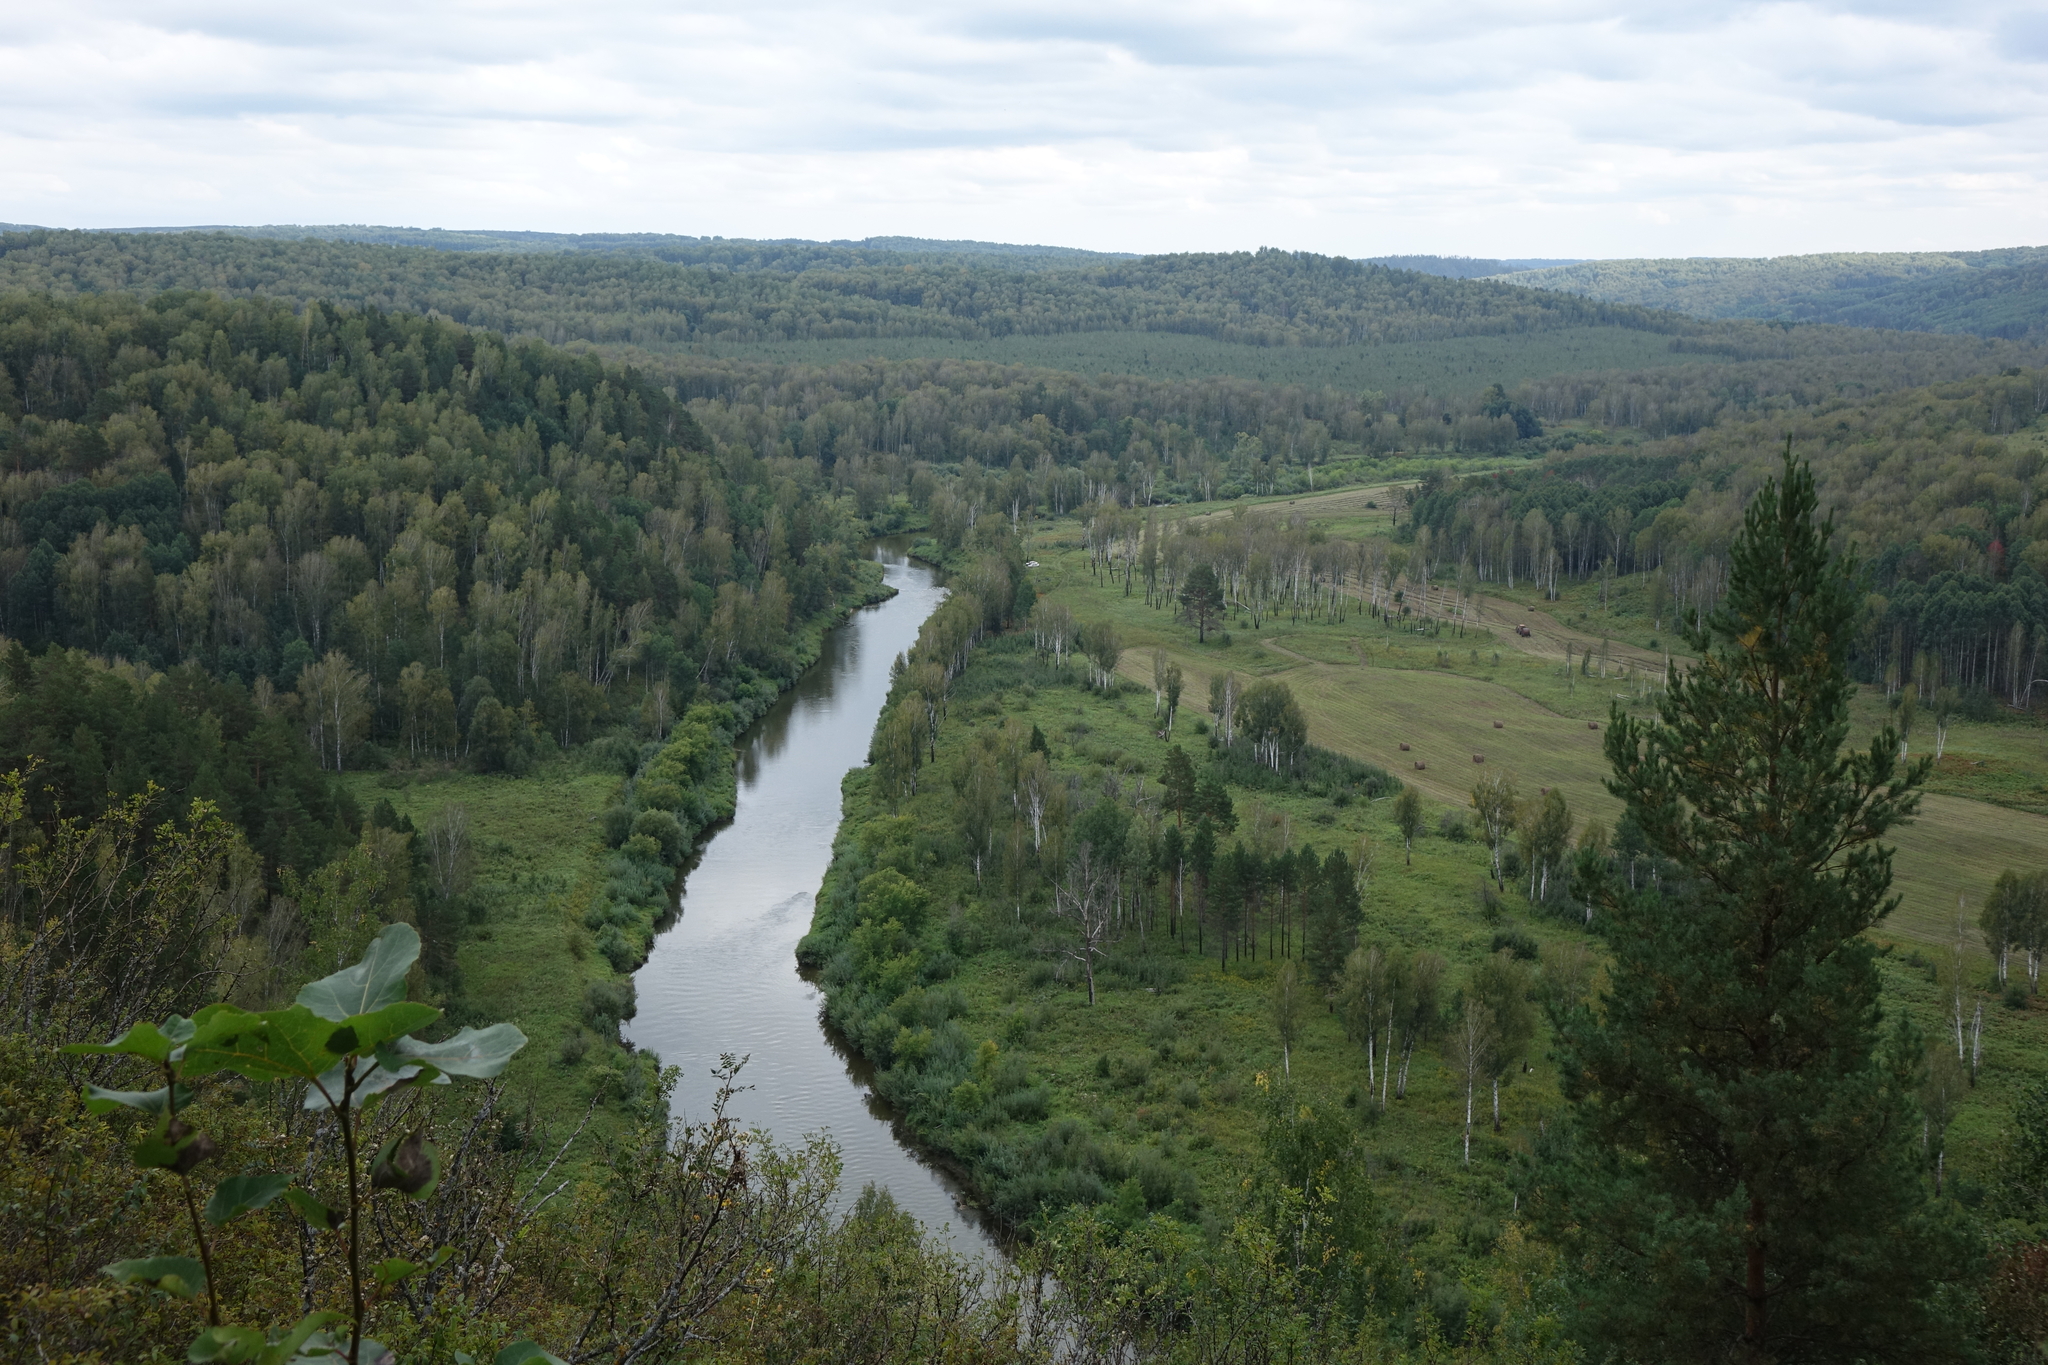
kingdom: Plantae
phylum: Tracheophyta
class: Pinopsida
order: Pinales
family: Pinaceae
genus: Pinus
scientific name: Pinus sylvestris
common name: Scots pine
